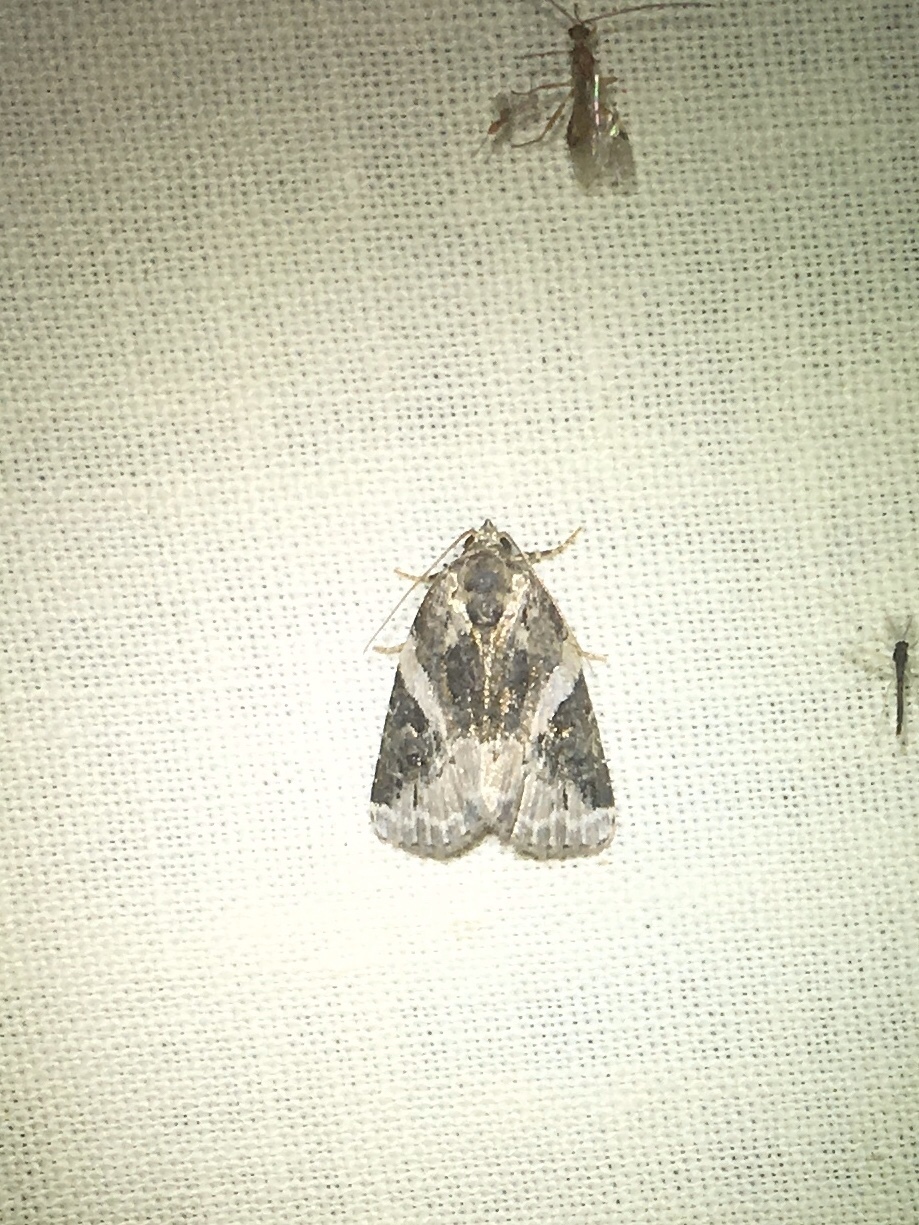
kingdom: Animalia
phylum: Arthropoda
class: Insecta
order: Lepidoptera
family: Noctuidae
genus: Pseudeustrotia
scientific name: Pseudeustrotia carneola
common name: Pink-barred lithacodia moth
